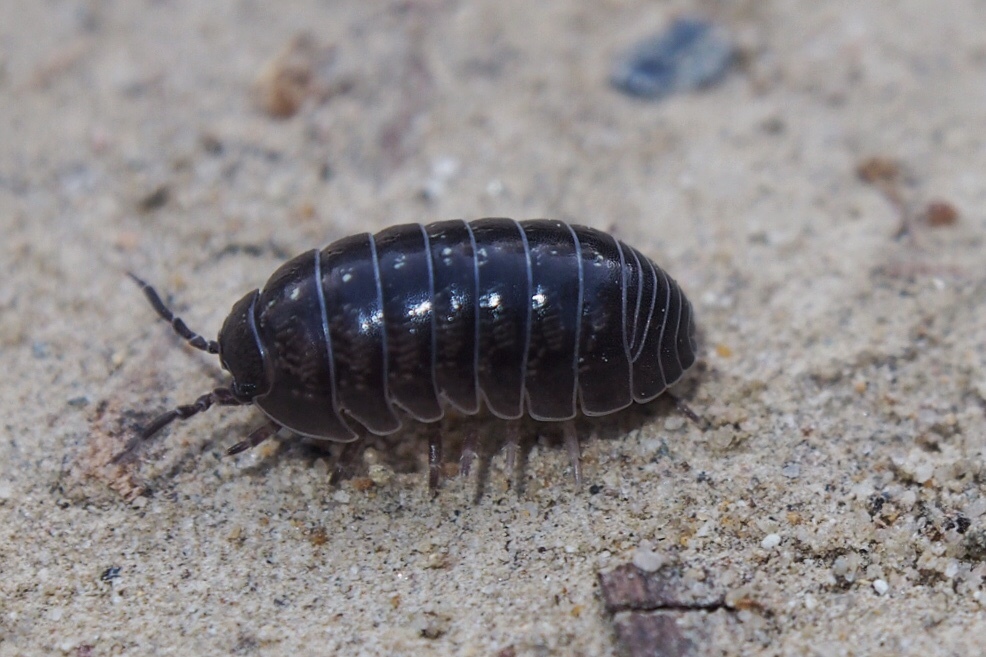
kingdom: Animalia
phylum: Arthropoda
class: Malacostraca
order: Isopoda
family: Armadillidiidae
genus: Armadillidium
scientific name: Armadillidium vulgare
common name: Common pill woodlouse
